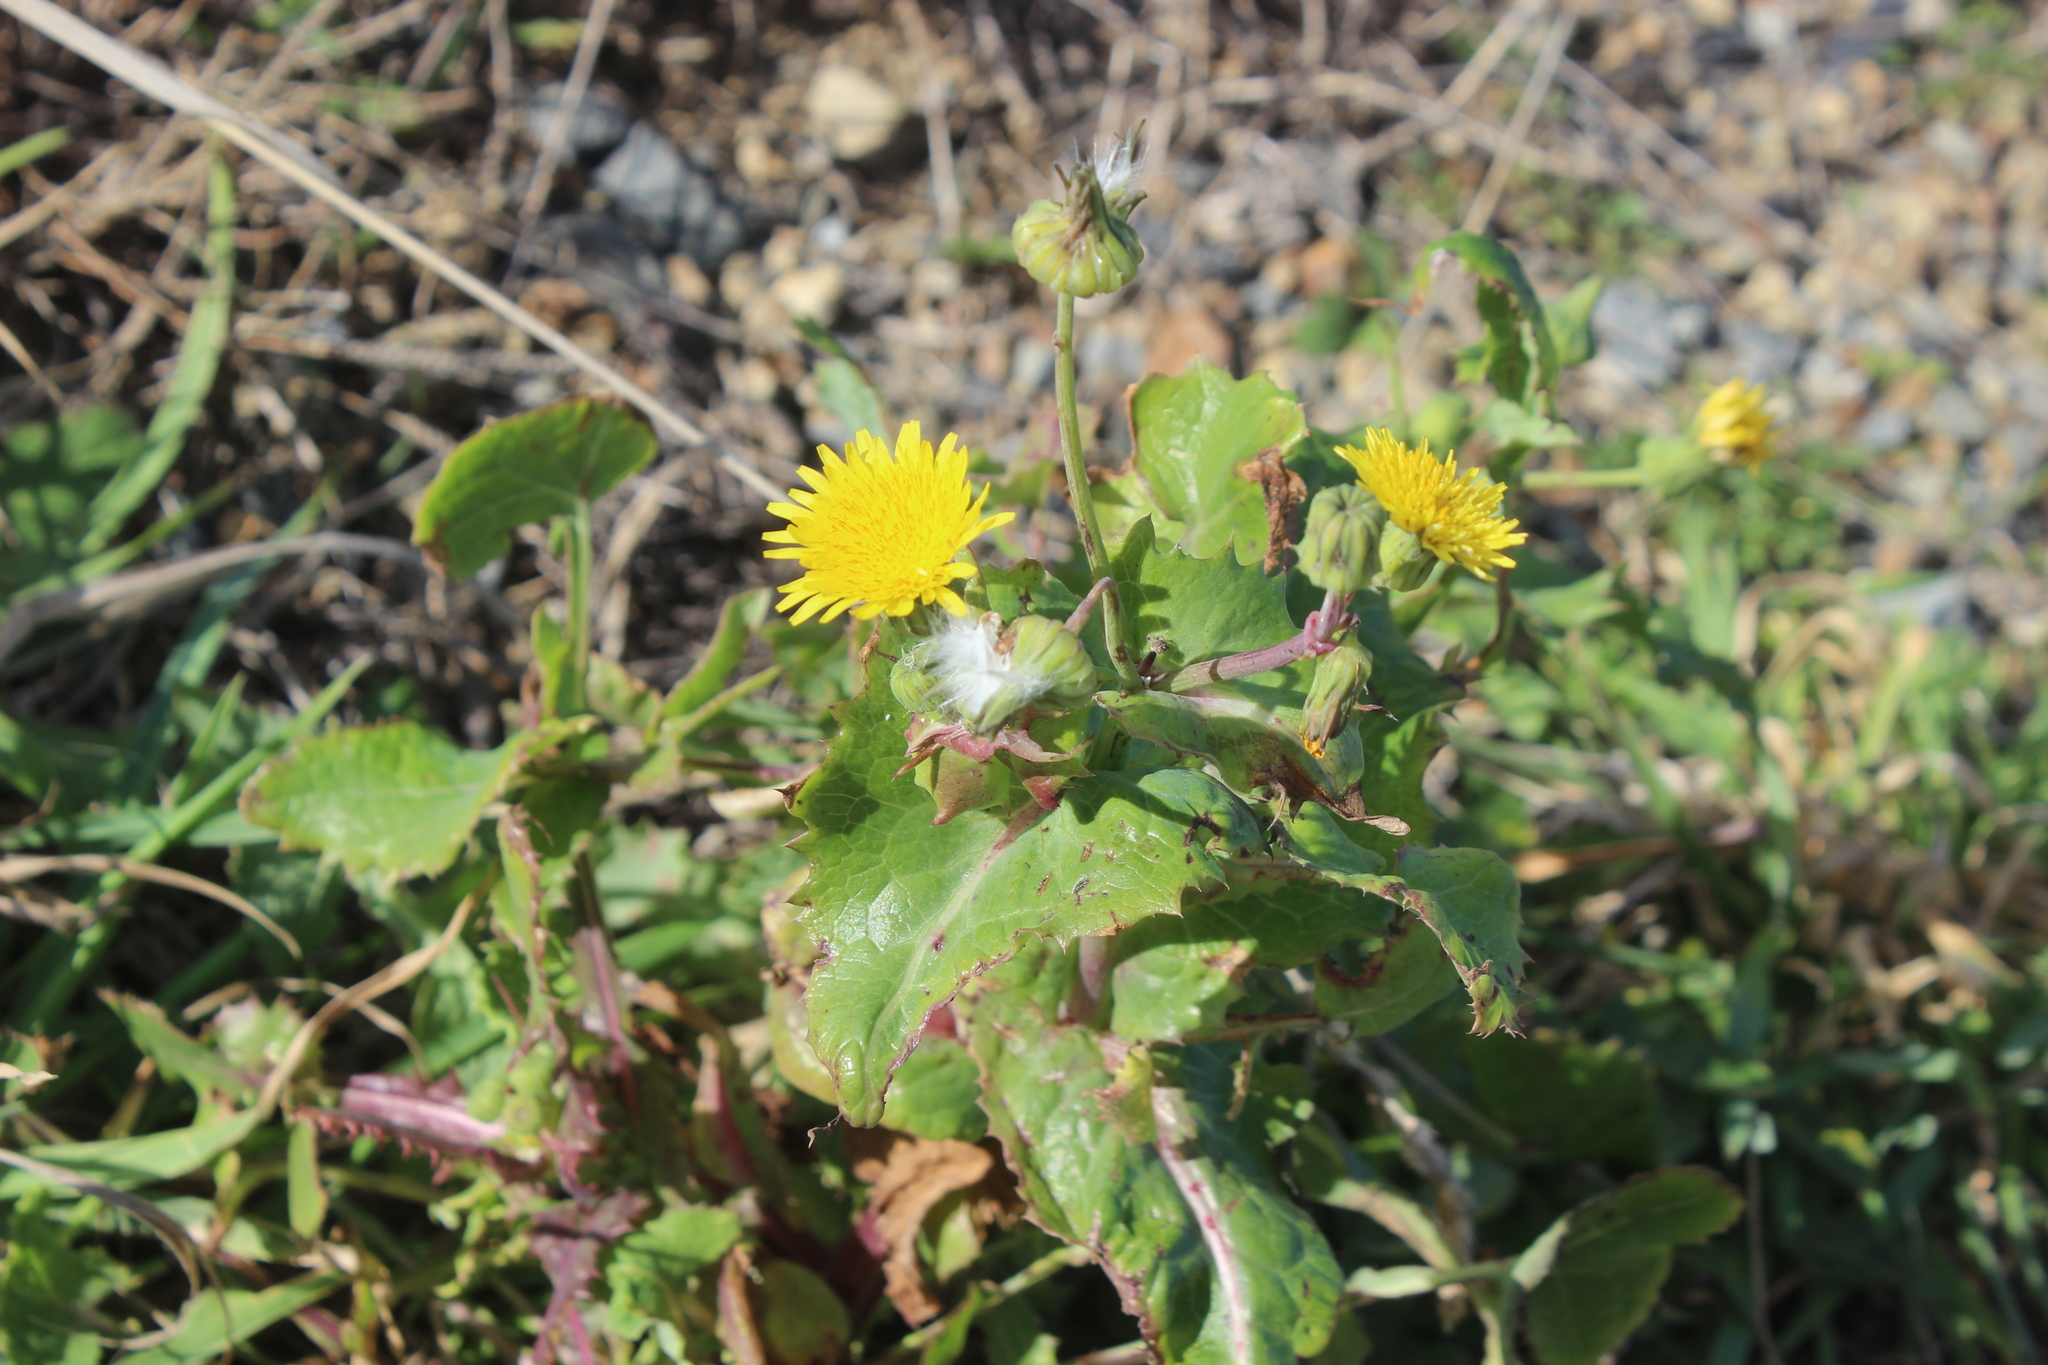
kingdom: Plantae
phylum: Tracheophyta
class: Magnoliopsida
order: Asterales
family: Asteraceae
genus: Sonchus
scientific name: Sonchus oleraceus
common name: Common sowthistle
